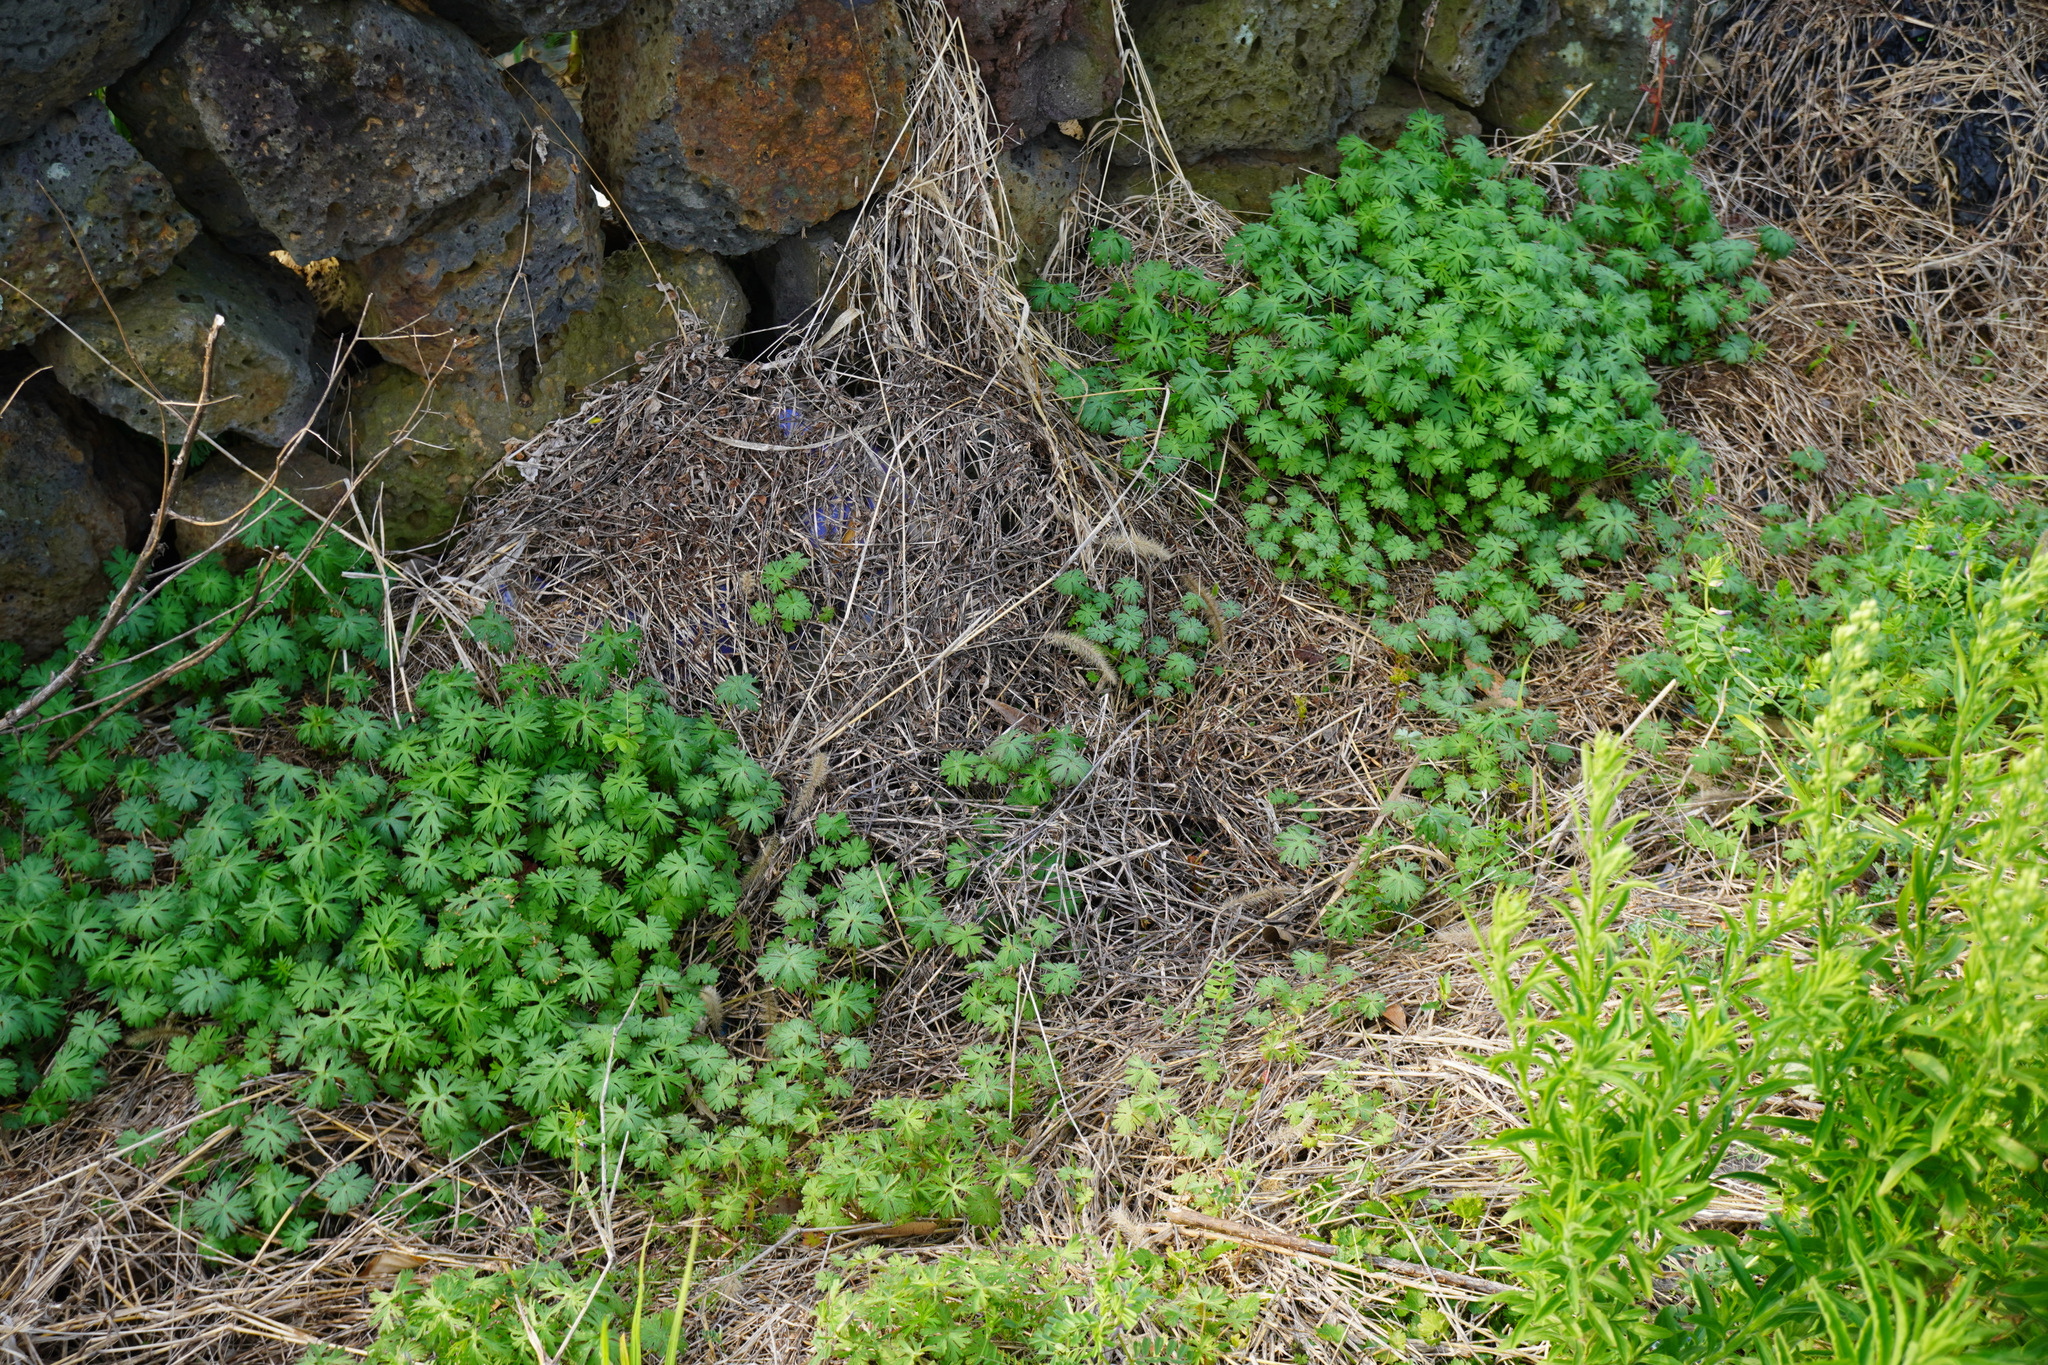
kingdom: Plantae
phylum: Tracheophyta
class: Magnoliopsida
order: Geraniales
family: Geraniaceae
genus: Geranium
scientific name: Geranium carolinianum
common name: Carolina crane's-bill
